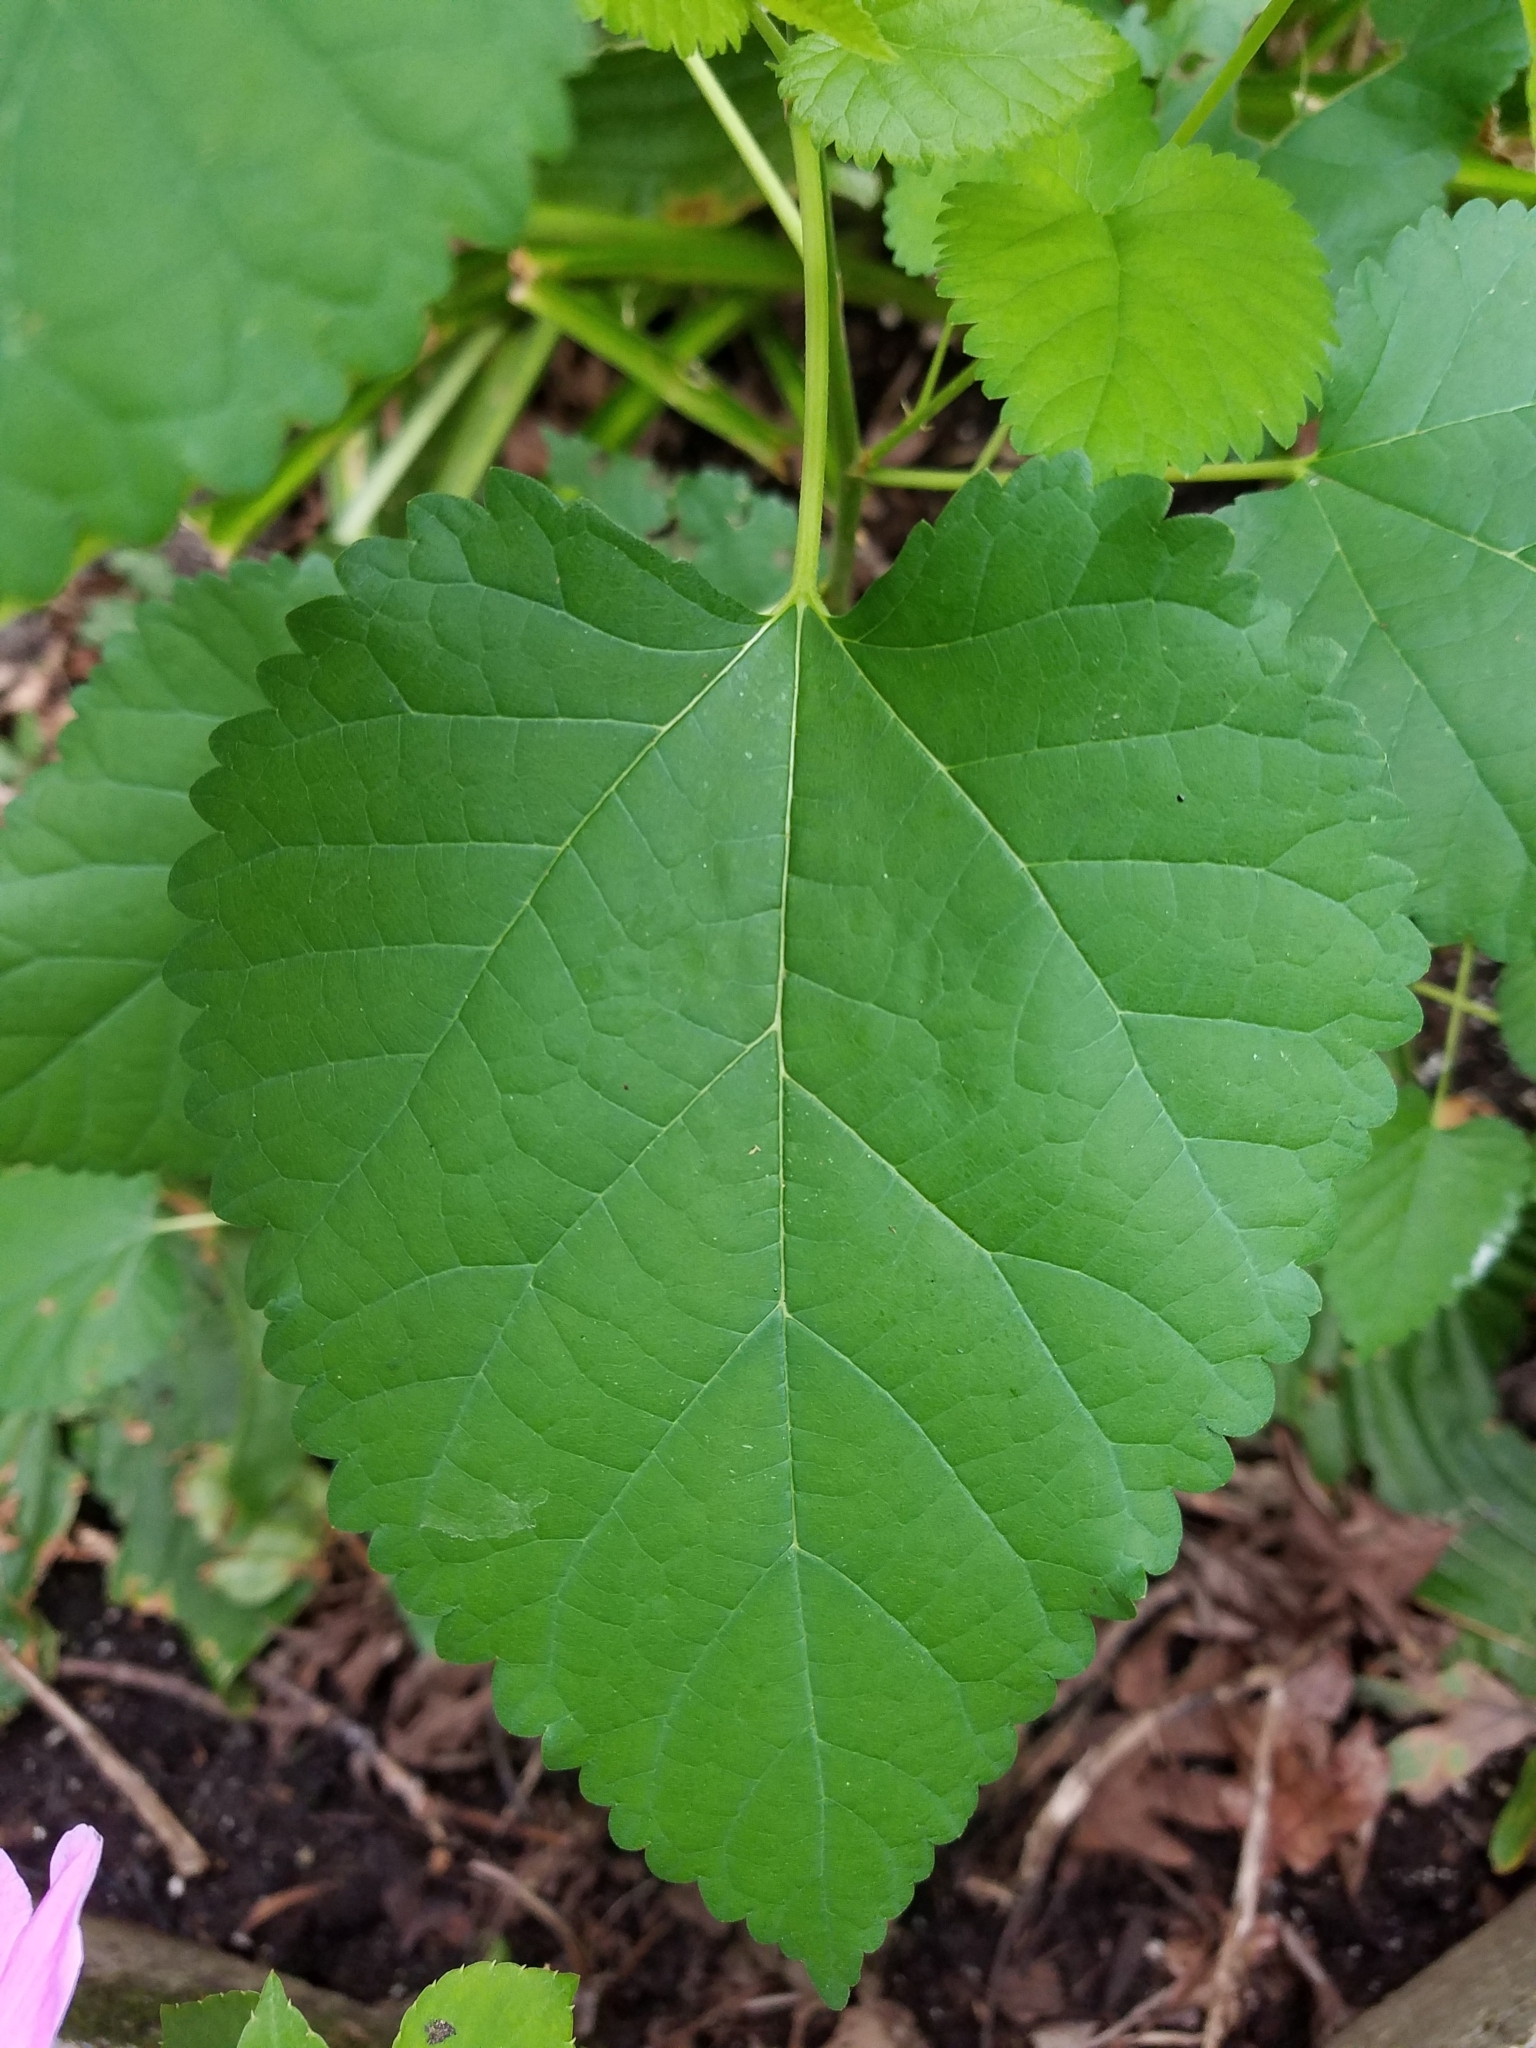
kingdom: Plantae
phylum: Tracheophyta
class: Magnoliopsida
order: Rosales
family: Moraceae
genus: Morus
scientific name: Morus alba
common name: White mulberry
